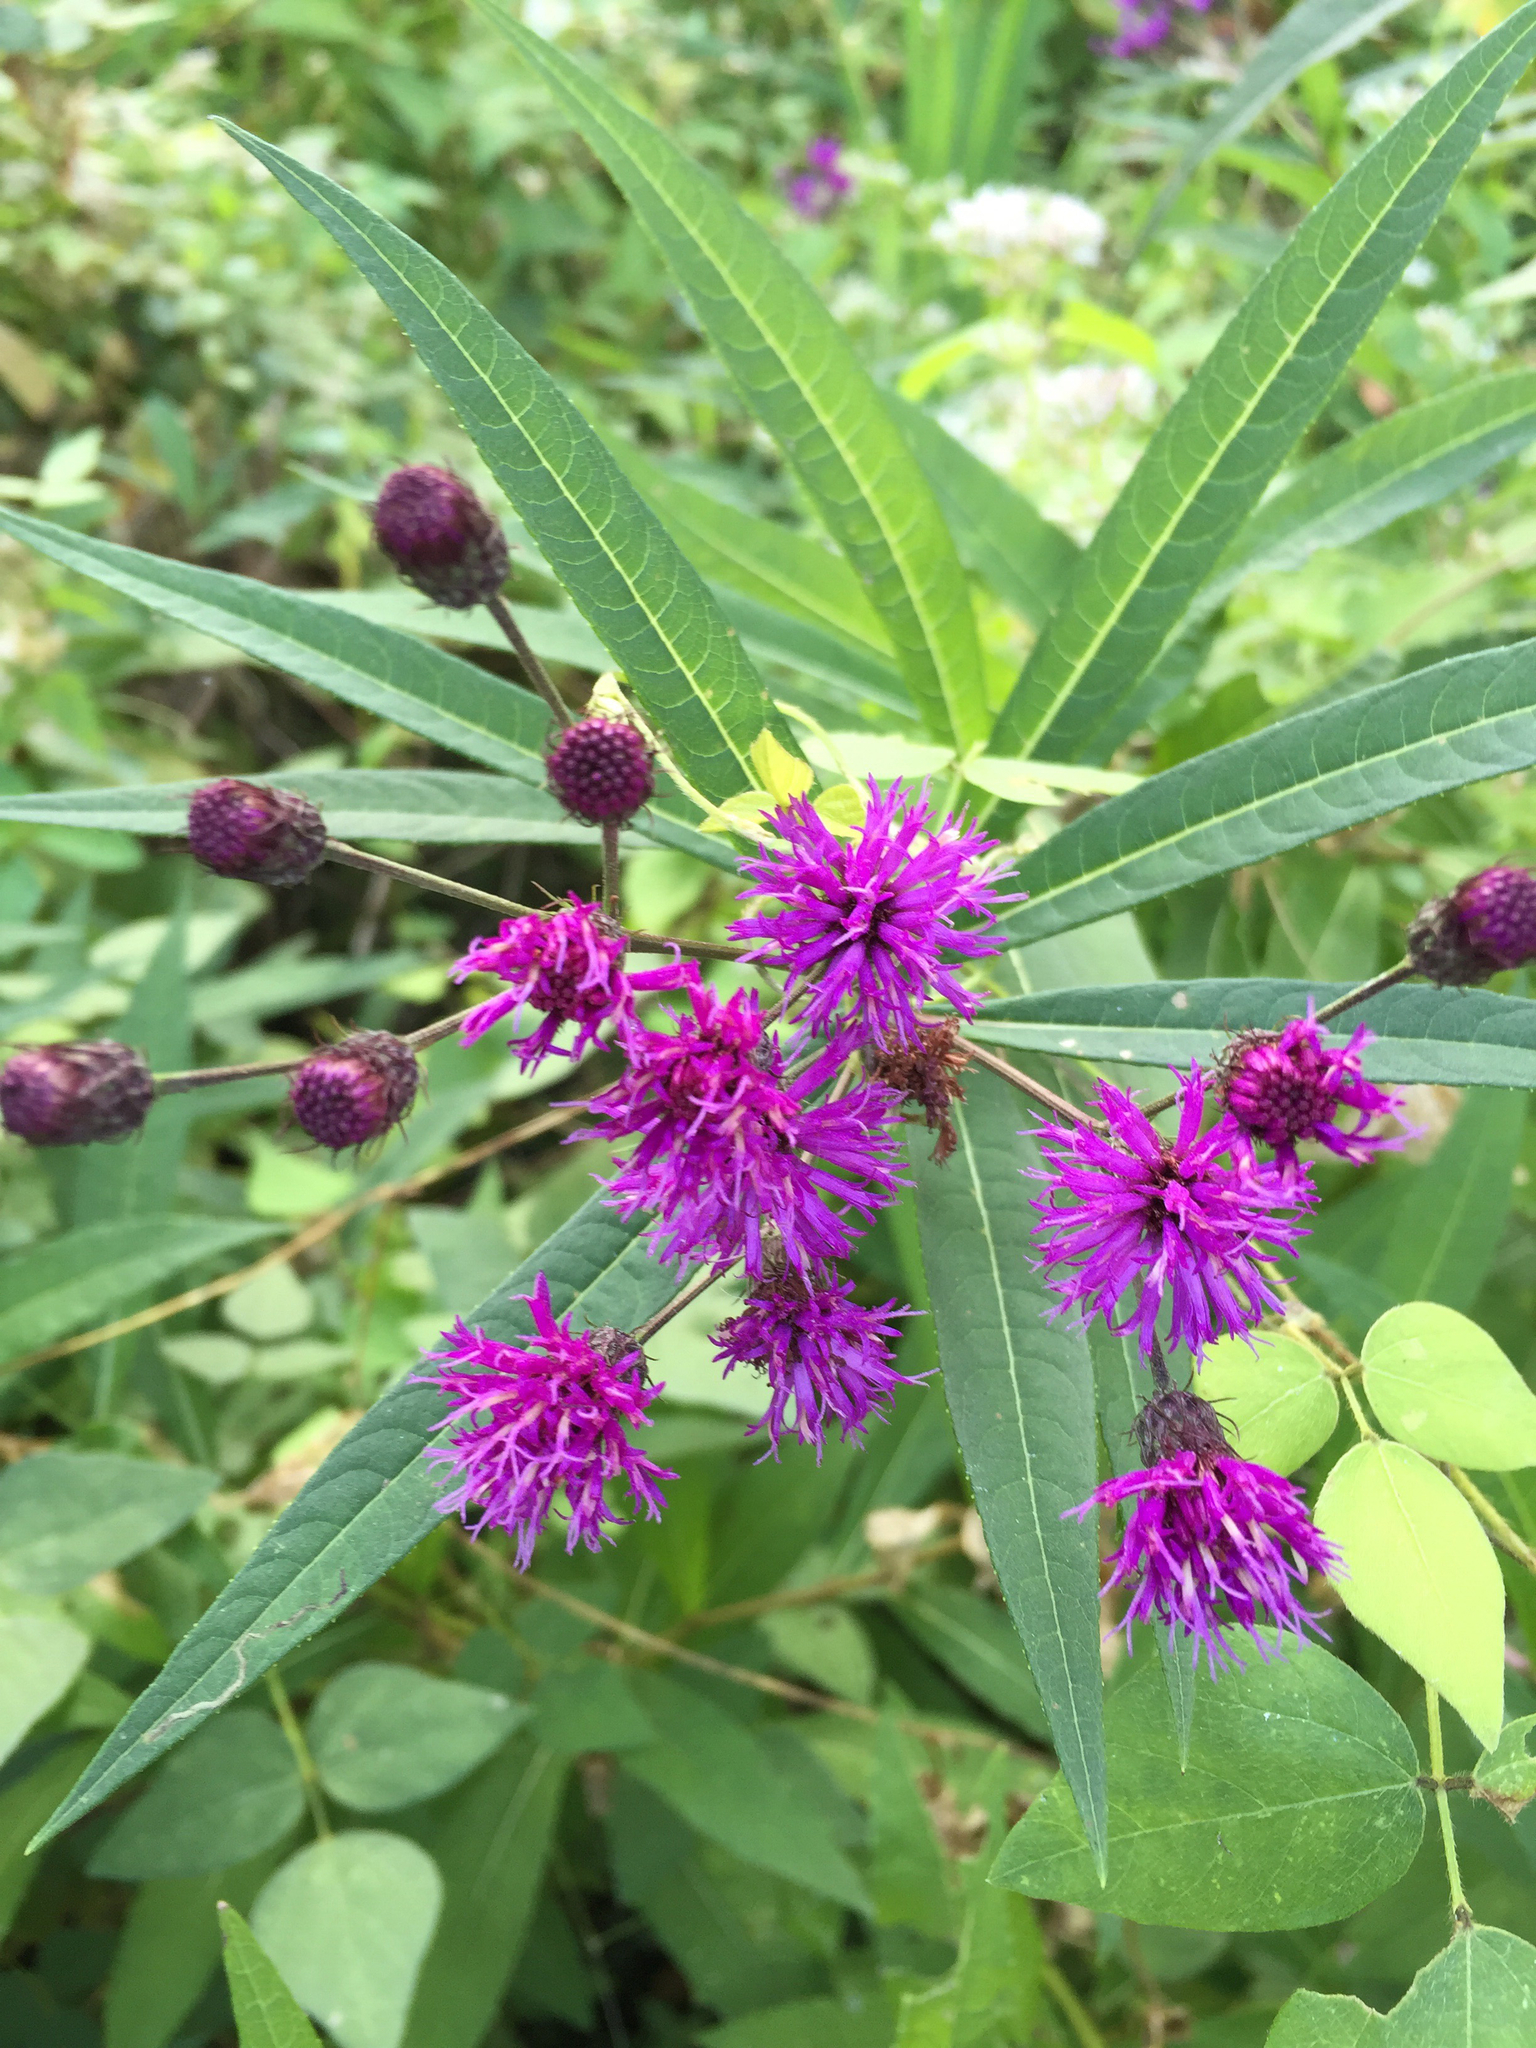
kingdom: Plantae
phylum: Tracheophyta
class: Magnoliopsida
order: Asterales
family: Asteraceae
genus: Vernonia
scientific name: Vernonia noveboracensis
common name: New york ironweed
